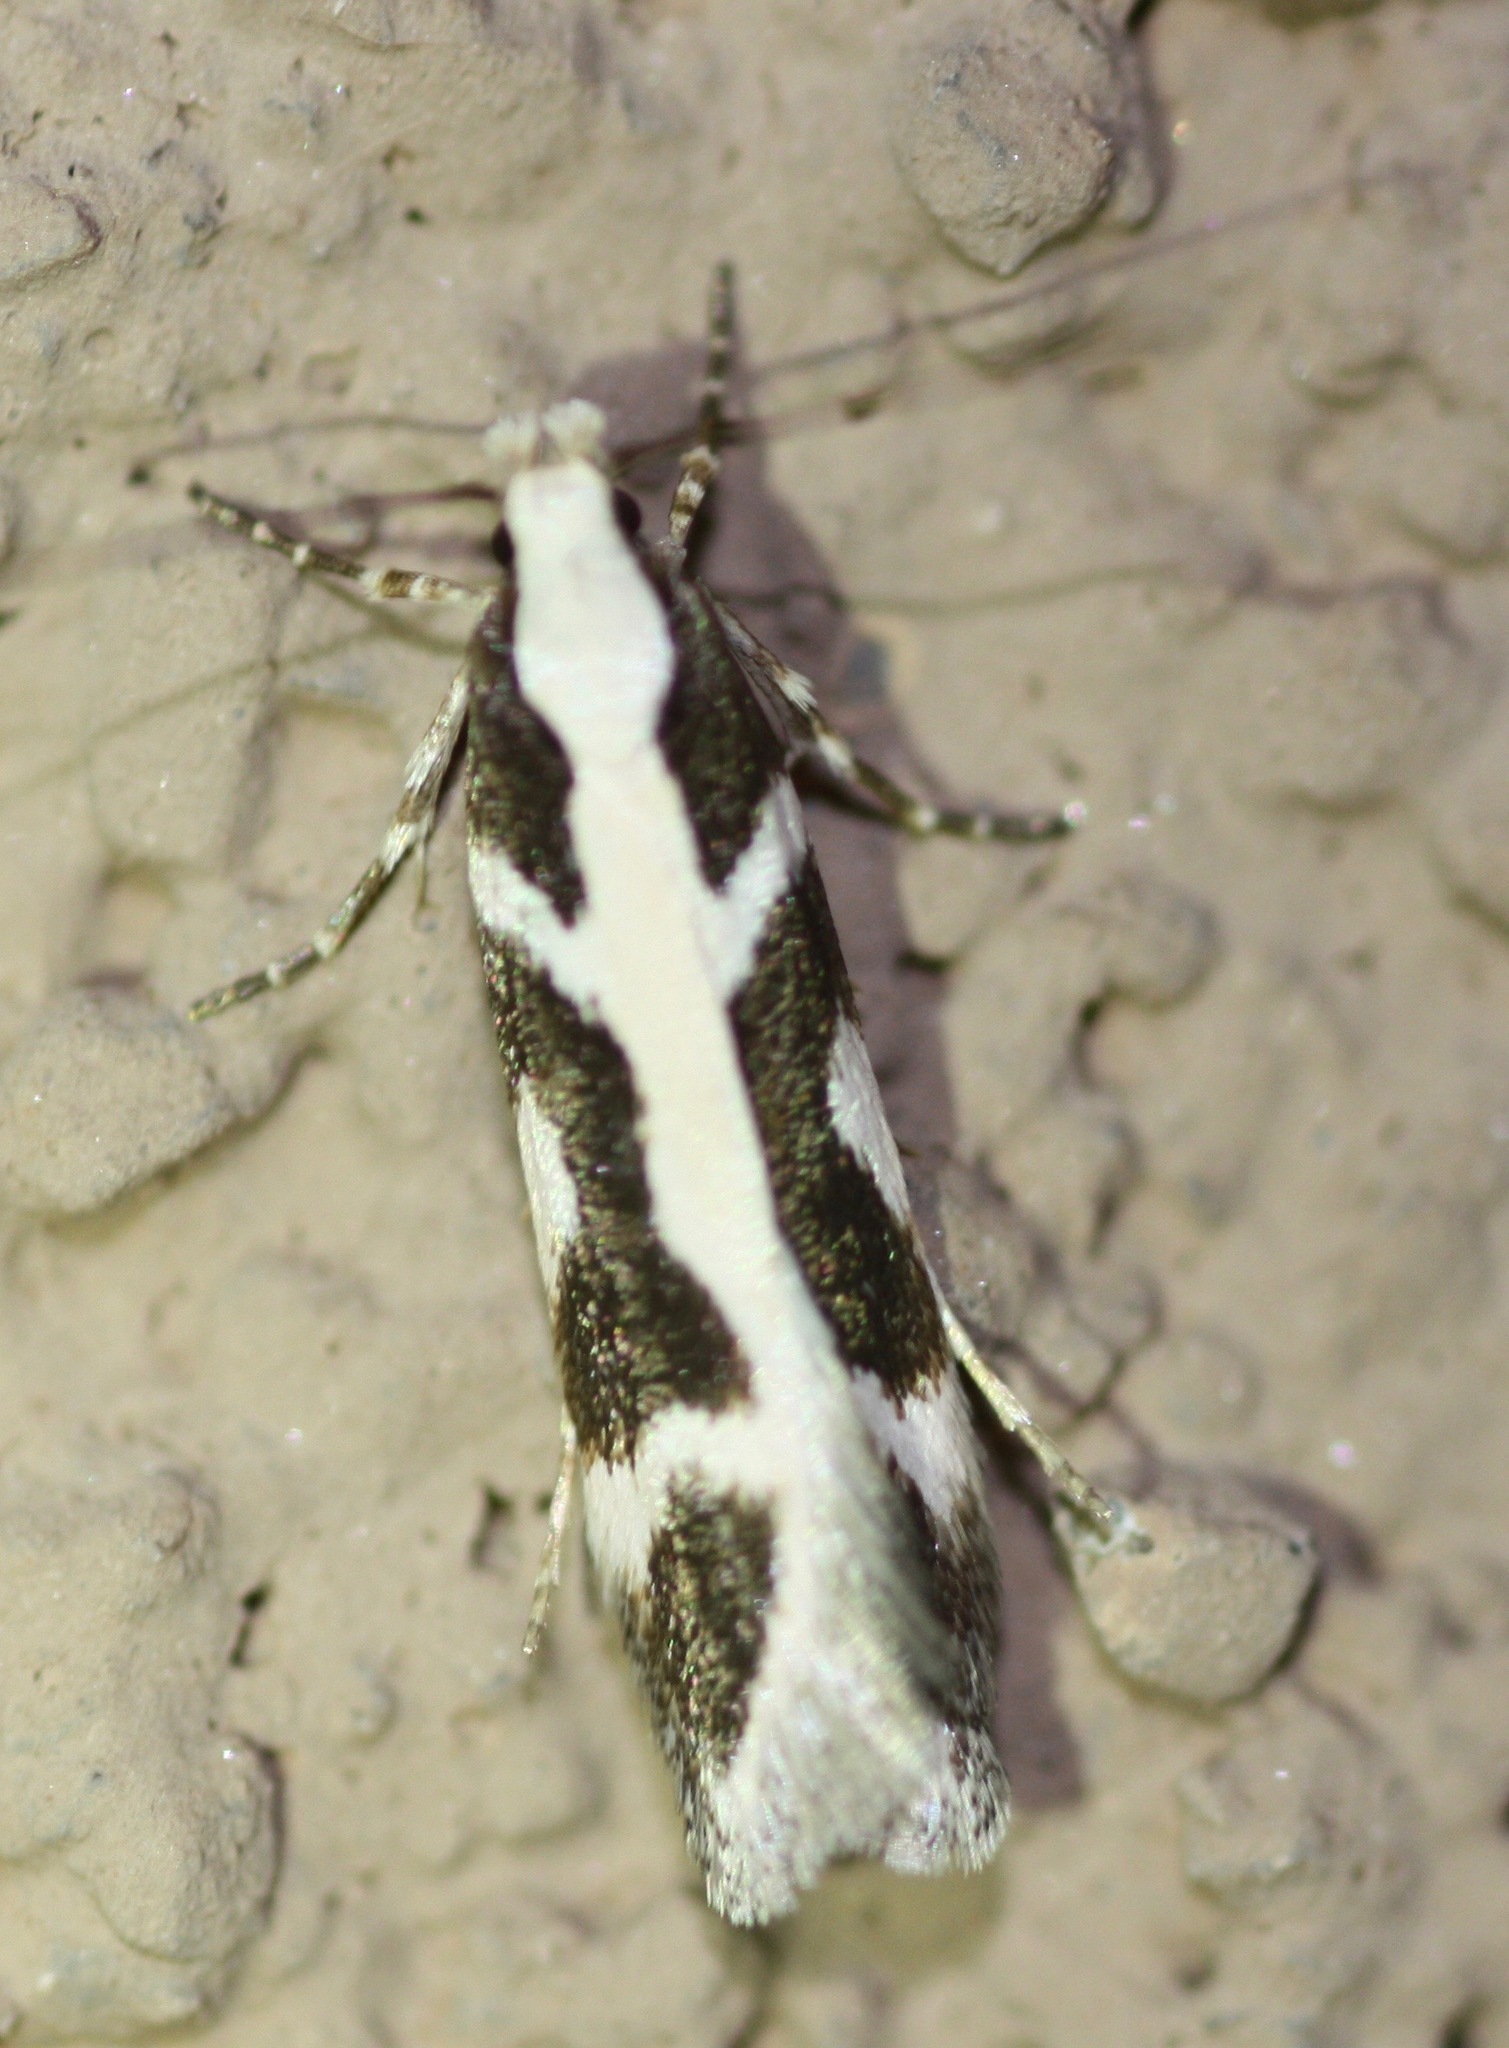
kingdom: Animalia
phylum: Arthropoda
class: Insecta
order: Lepidoptera
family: Gelechiidae
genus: Aroga
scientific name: Aroga paulella
